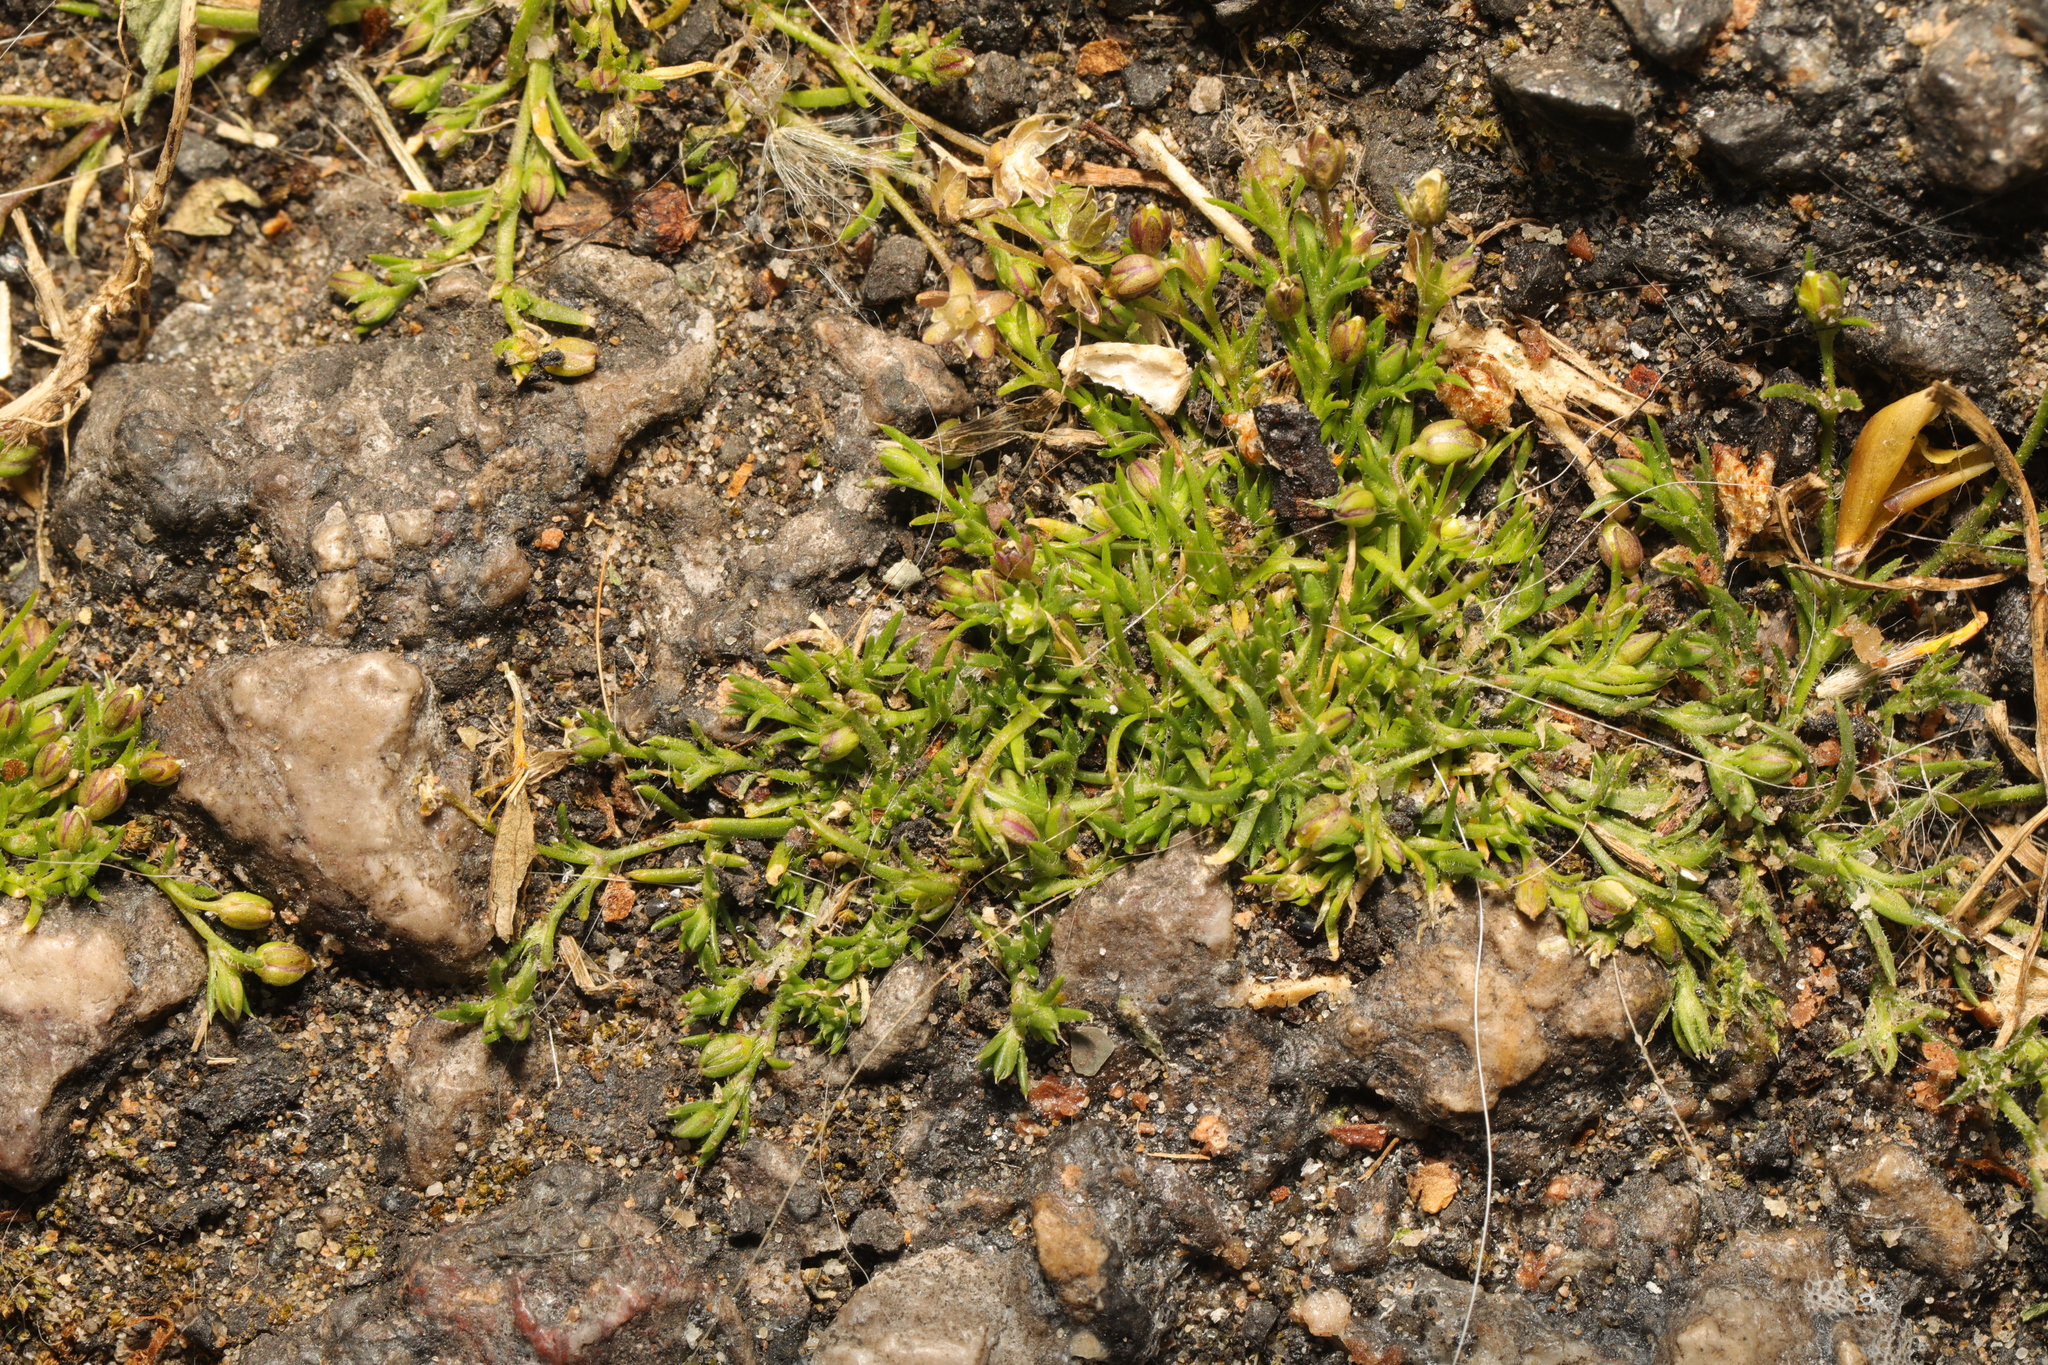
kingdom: Plantae
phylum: Tracheophyta
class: Magnoliopsida
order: Caryophyllales
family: Caryophyllaceae
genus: Sagina
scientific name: Sagina procumbens
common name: Procumbent pearlwort
